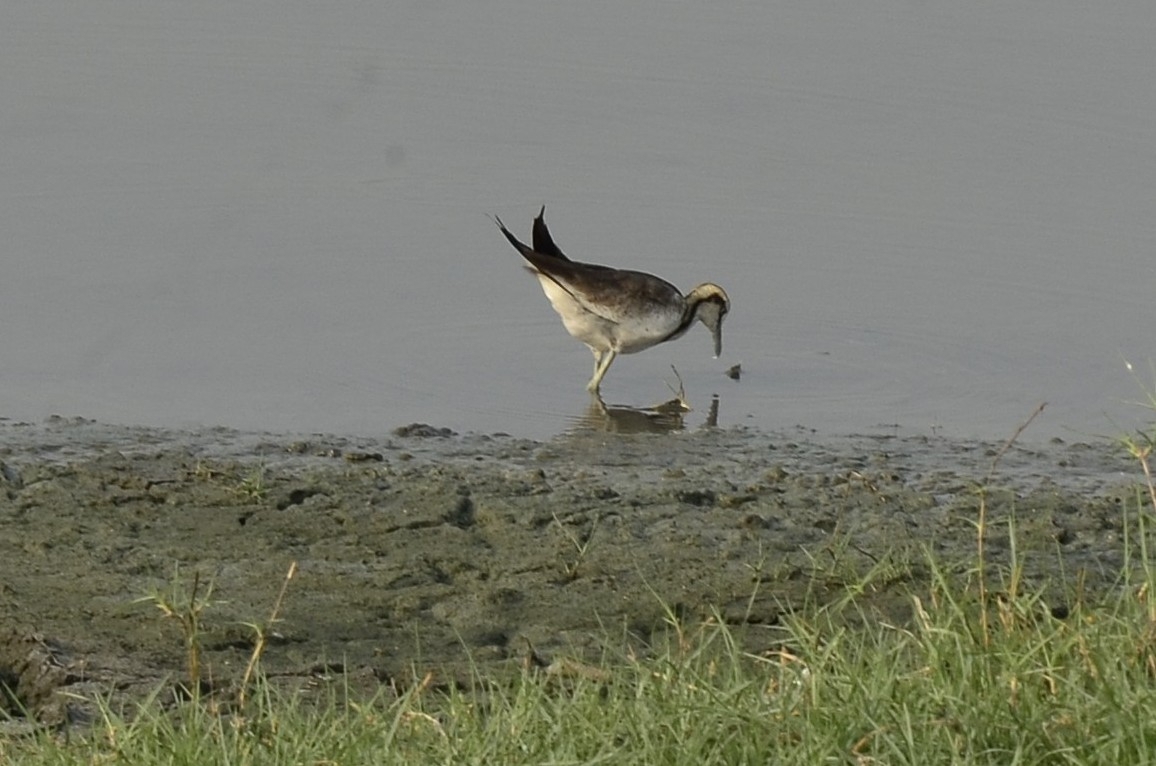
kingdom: Animalia
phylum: Chordata
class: Aves
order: Charadriiformes
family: Jacanidae
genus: Hydrophasianus
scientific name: Hydrophasianus chirurgus
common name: Pheasant-tailed jacana
